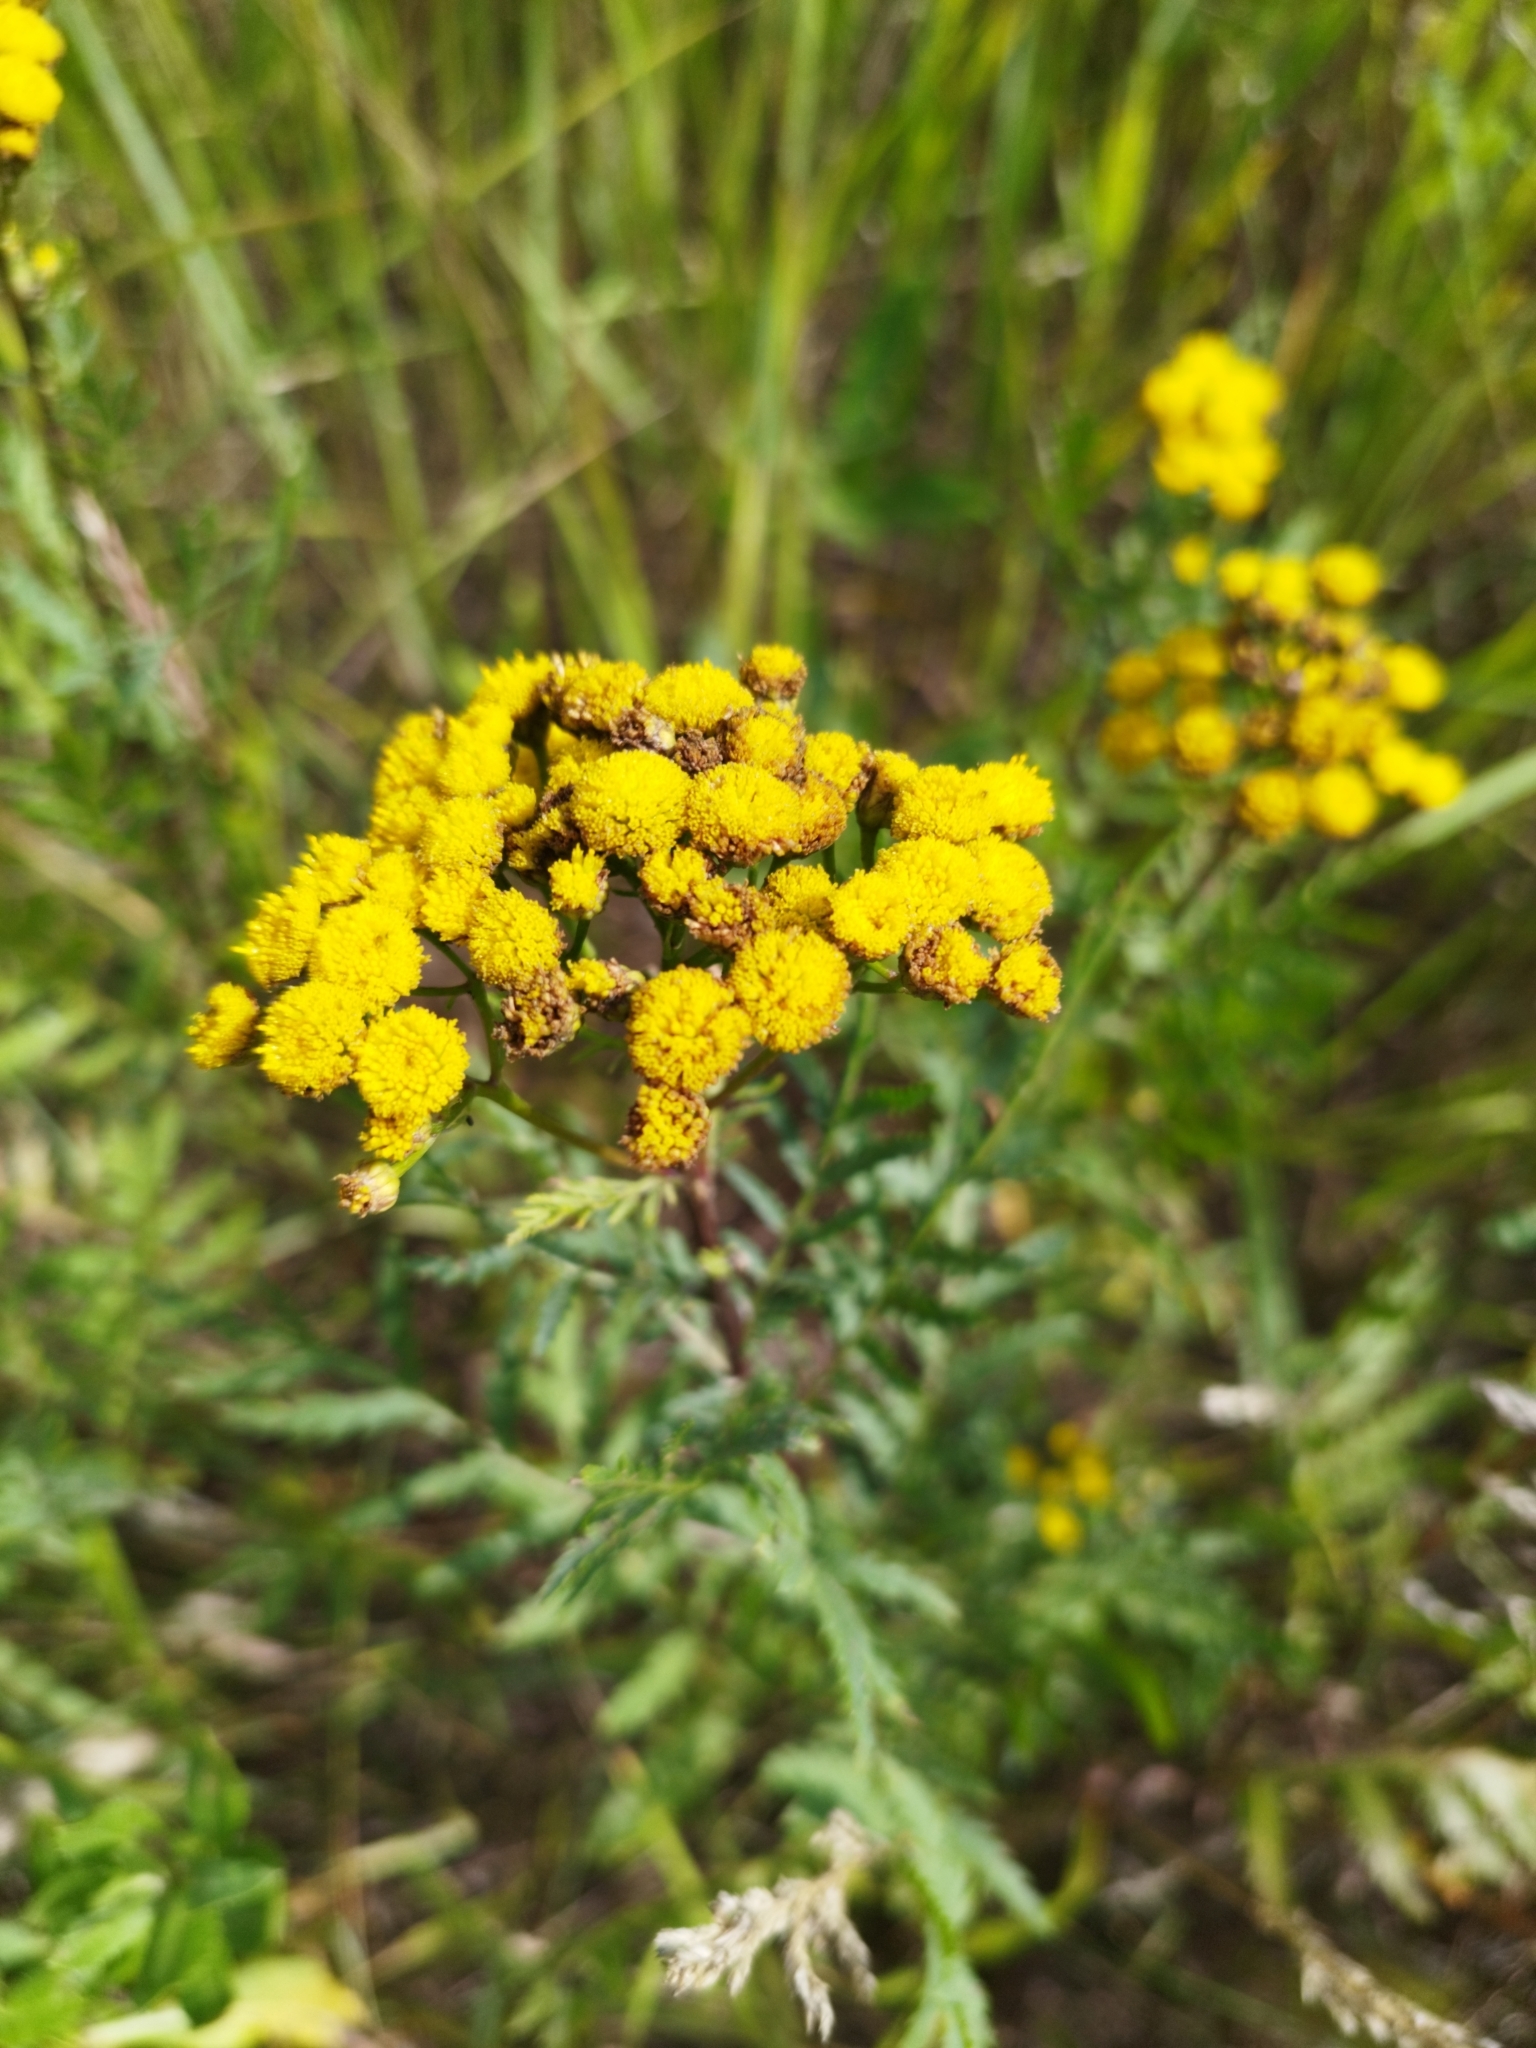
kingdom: Plantae
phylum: Tracheophyta
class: Magnoliopsida
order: Asterales
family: Asteraceae
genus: Tanacetum
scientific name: Tanacetum vulgare
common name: Common tansy
